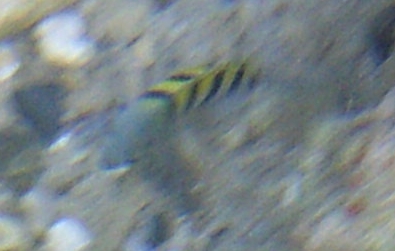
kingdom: Animalia
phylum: Chordata
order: Perciformes
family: Pomacentridae
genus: Abudefduf
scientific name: Abudefduf saxatilis
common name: Sergeant major
